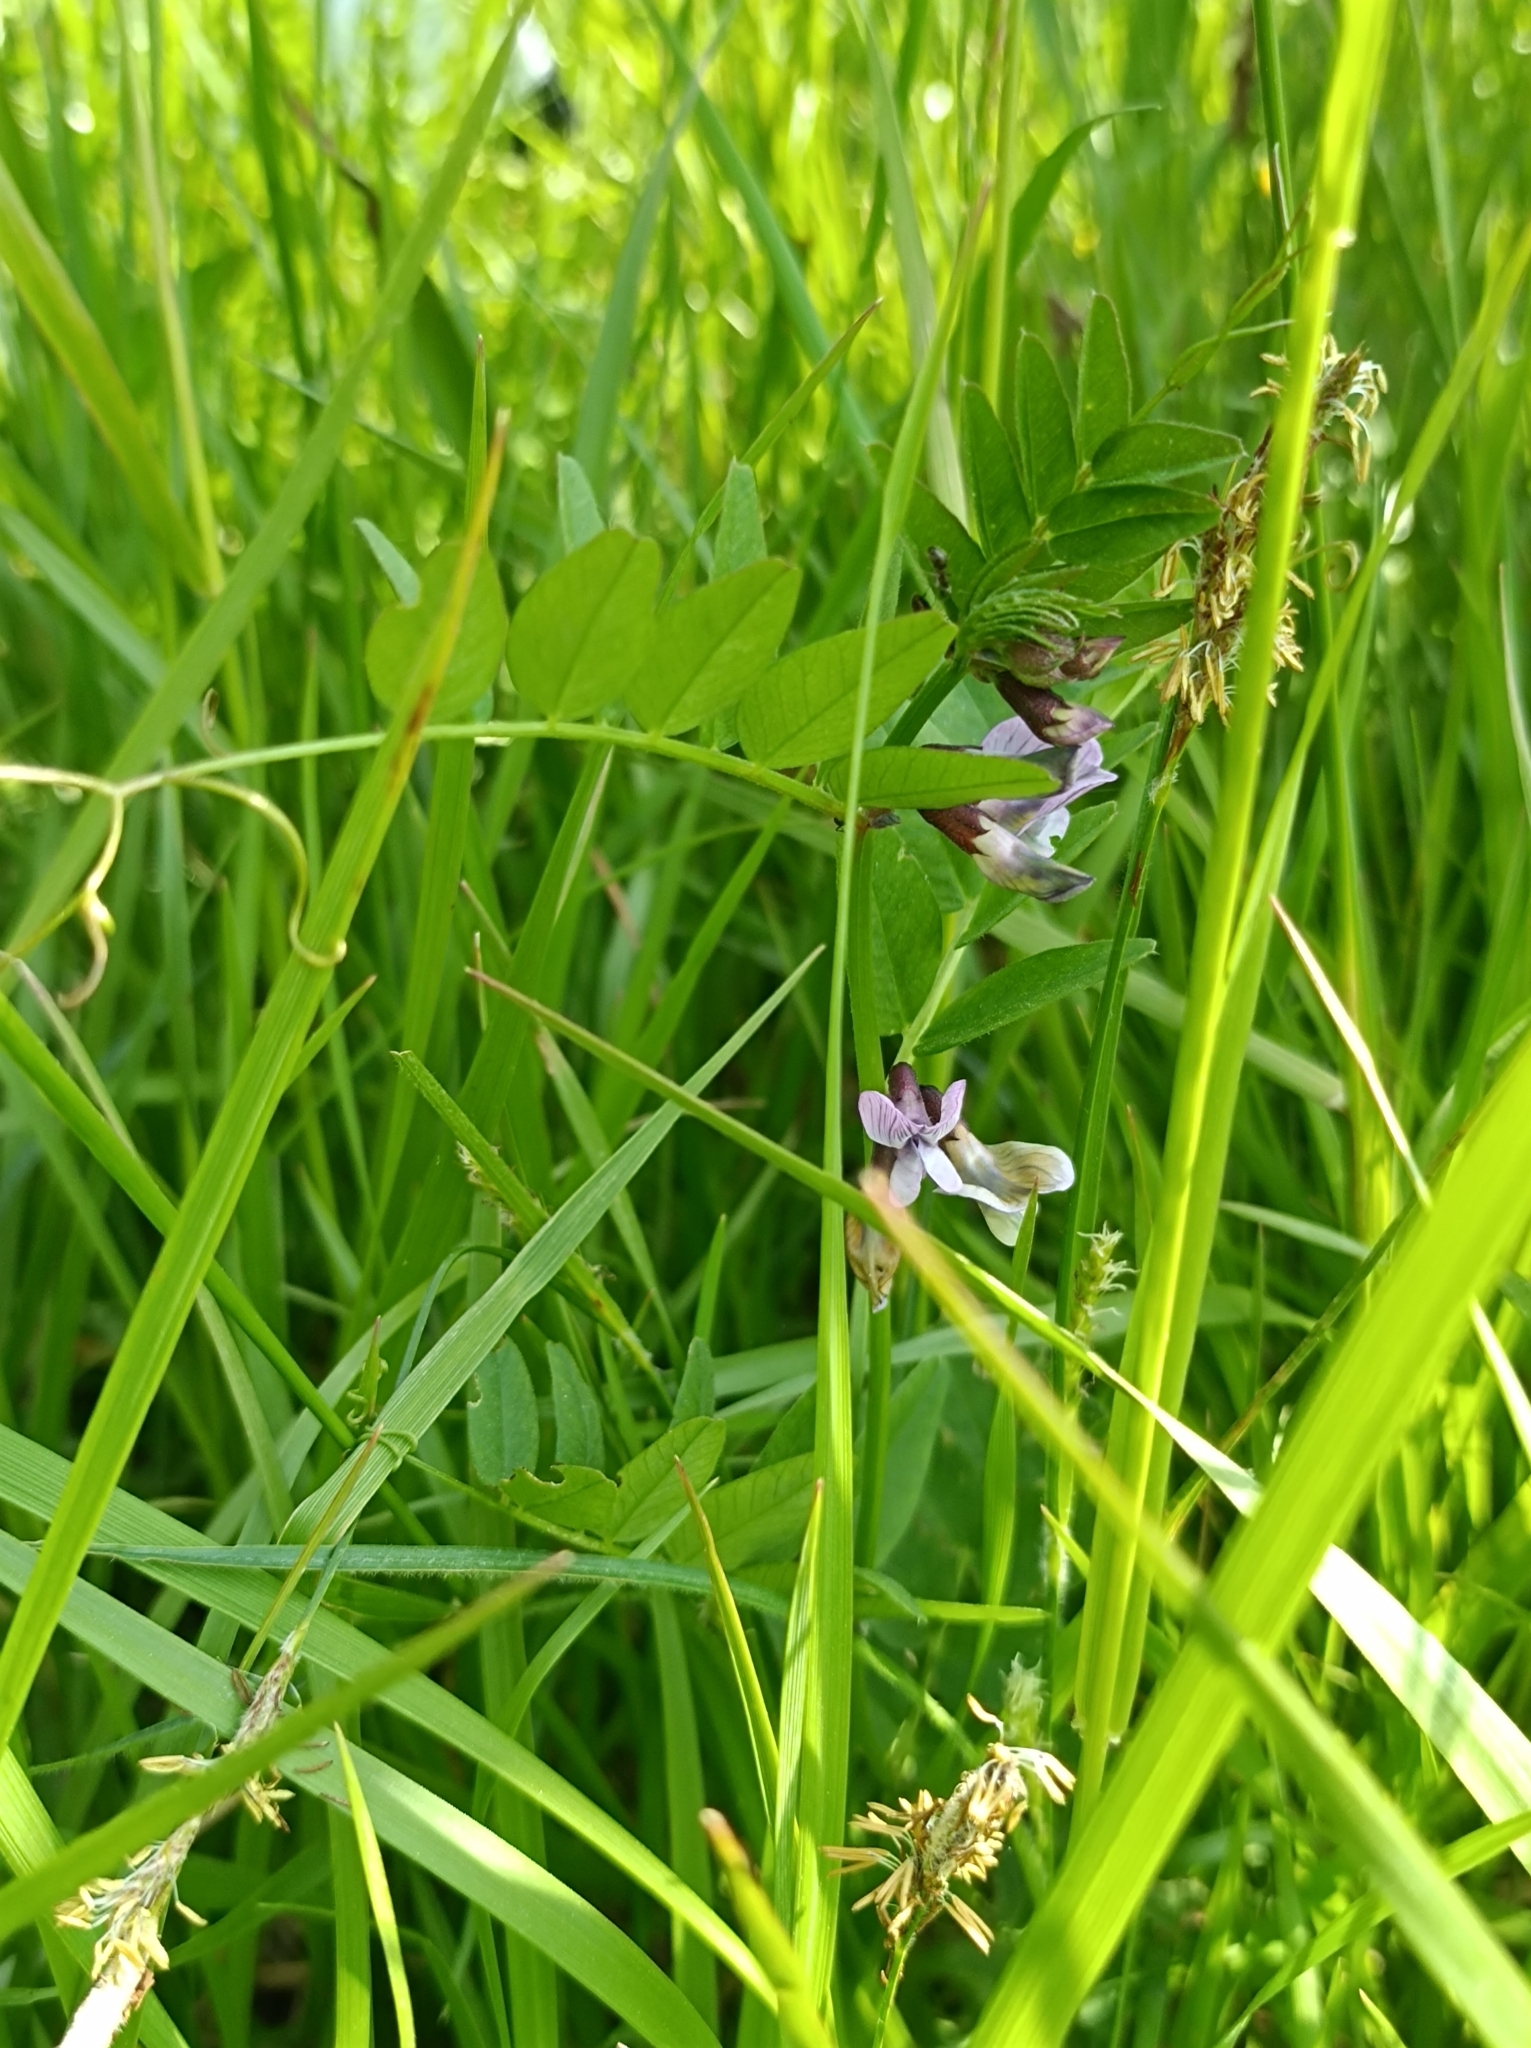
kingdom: Plantae
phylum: Tracheophyta
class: Magnoliopsida
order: Fabales
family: Fabaceae
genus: Vicia
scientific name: Vicia sepium
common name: Bush vetch
